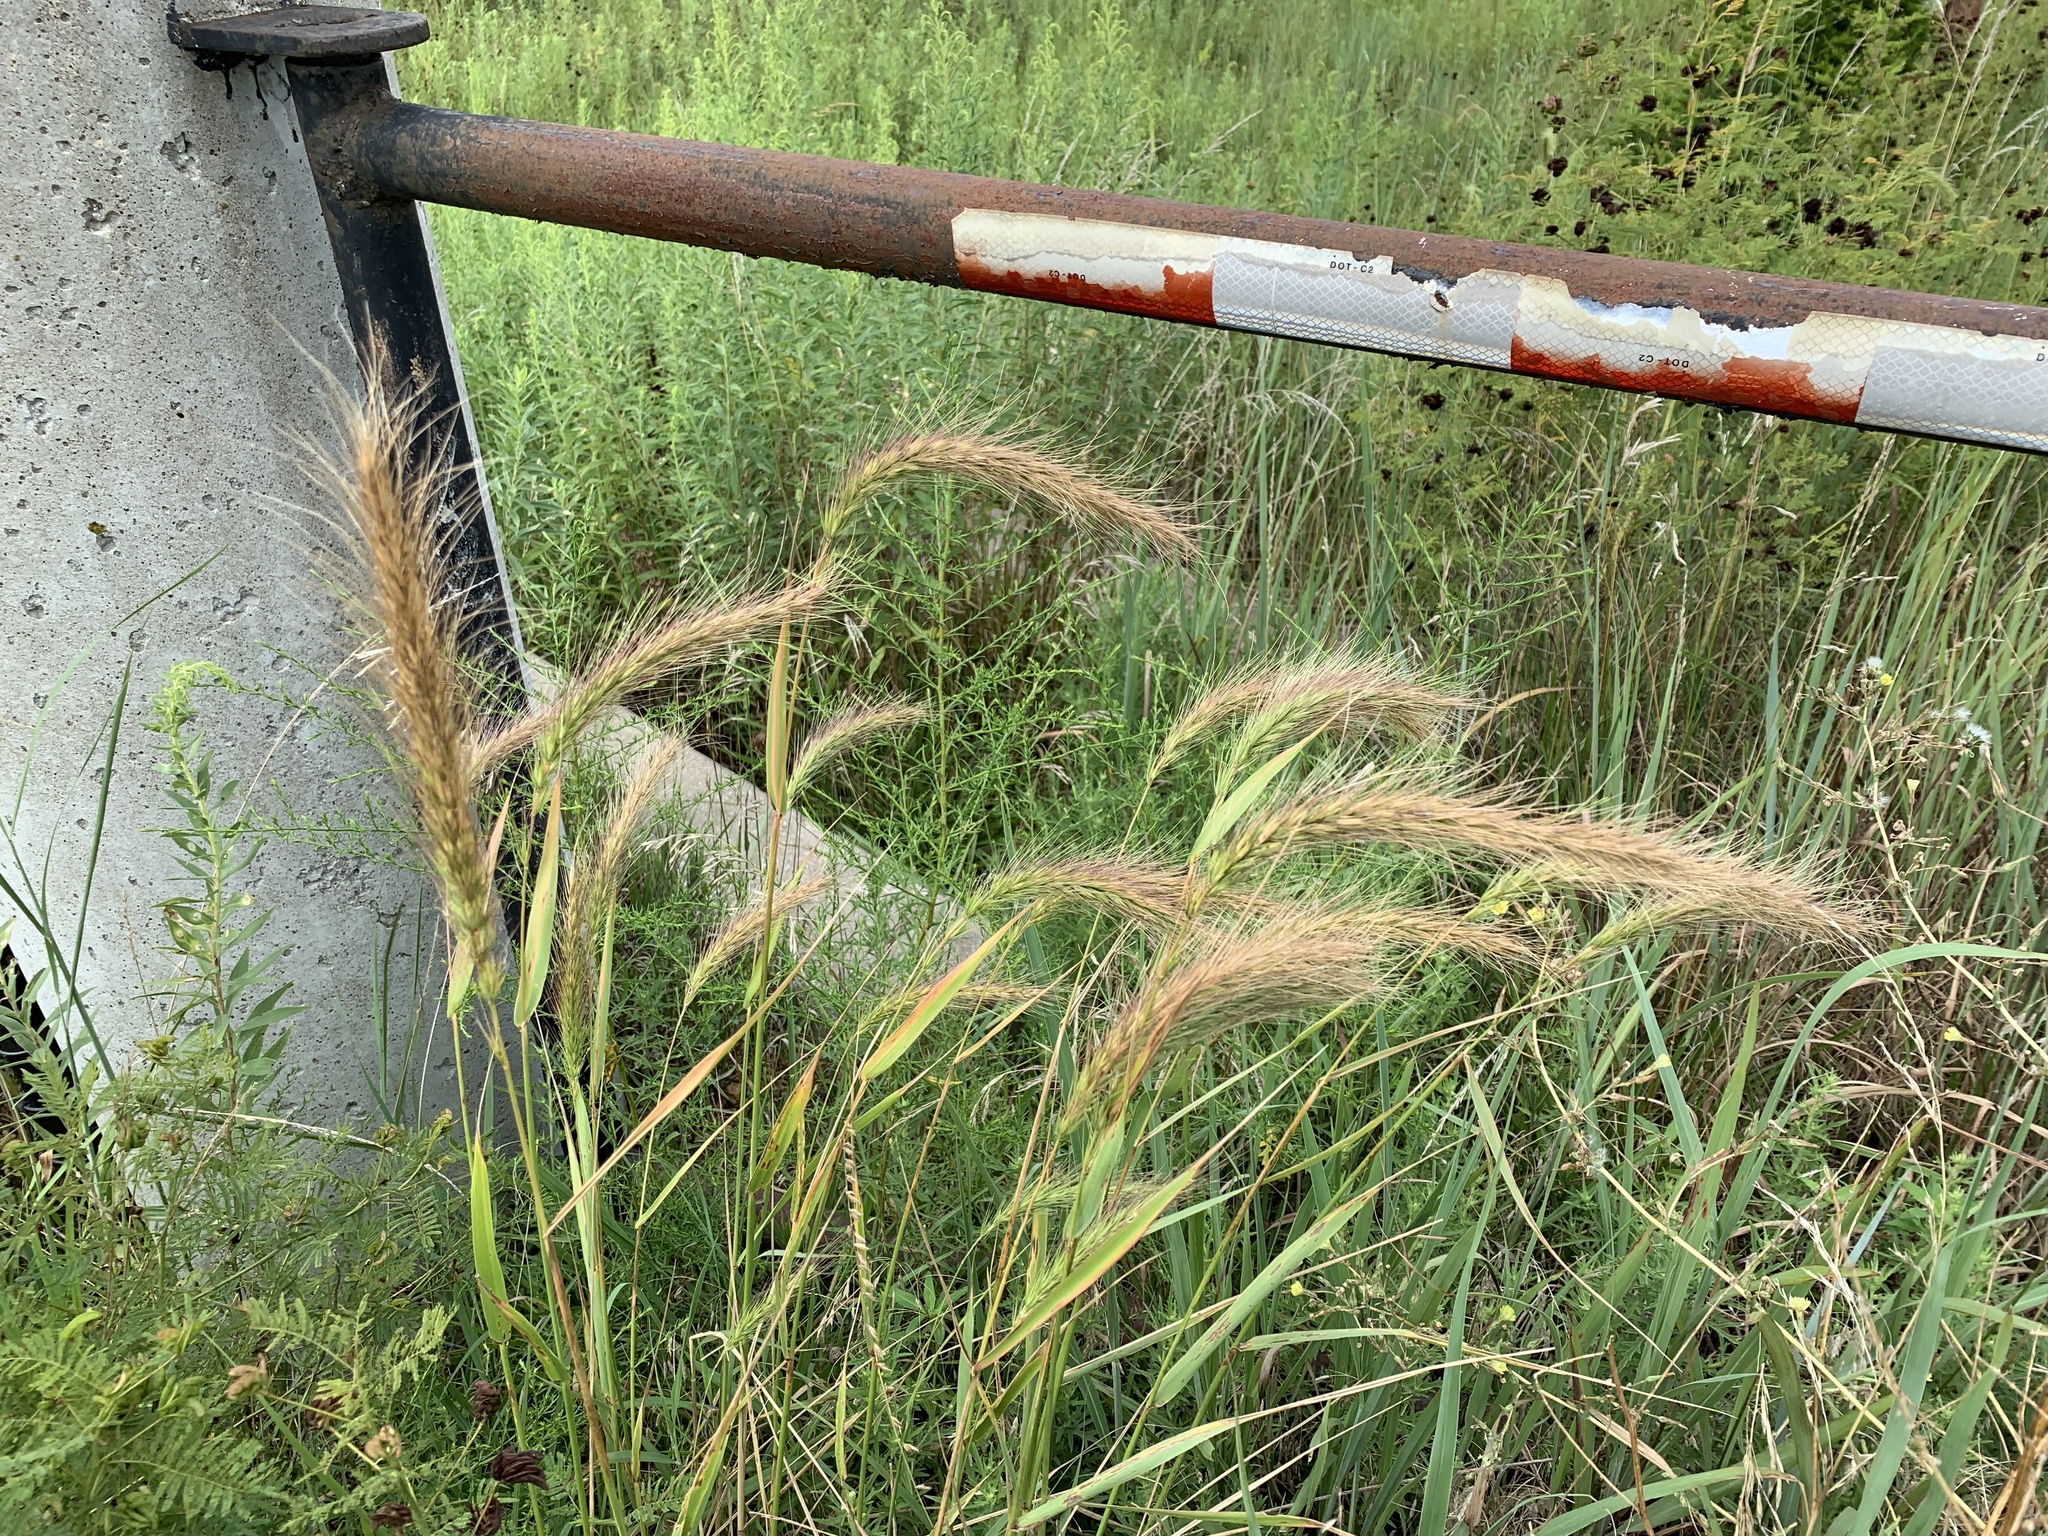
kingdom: Plantae
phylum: Tracheophyta
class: Liliopsida
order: Poales
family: Poaceae
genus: Elymus
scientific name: Elymus canadensis
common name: Canada wild rye
